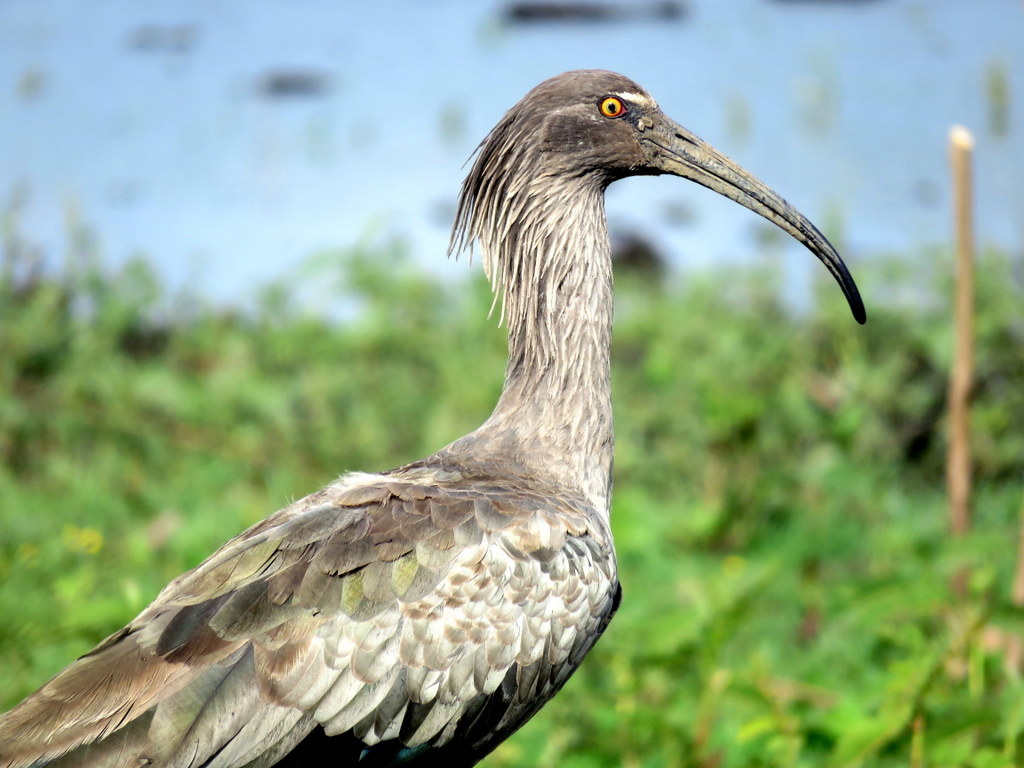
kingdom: Animalia
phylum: Chordata
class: Aves
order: Pelecaniformes
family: Threskiornithidae
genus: Theristicus
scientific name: Theristicus caerulescens
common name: Plumbeous ibis
